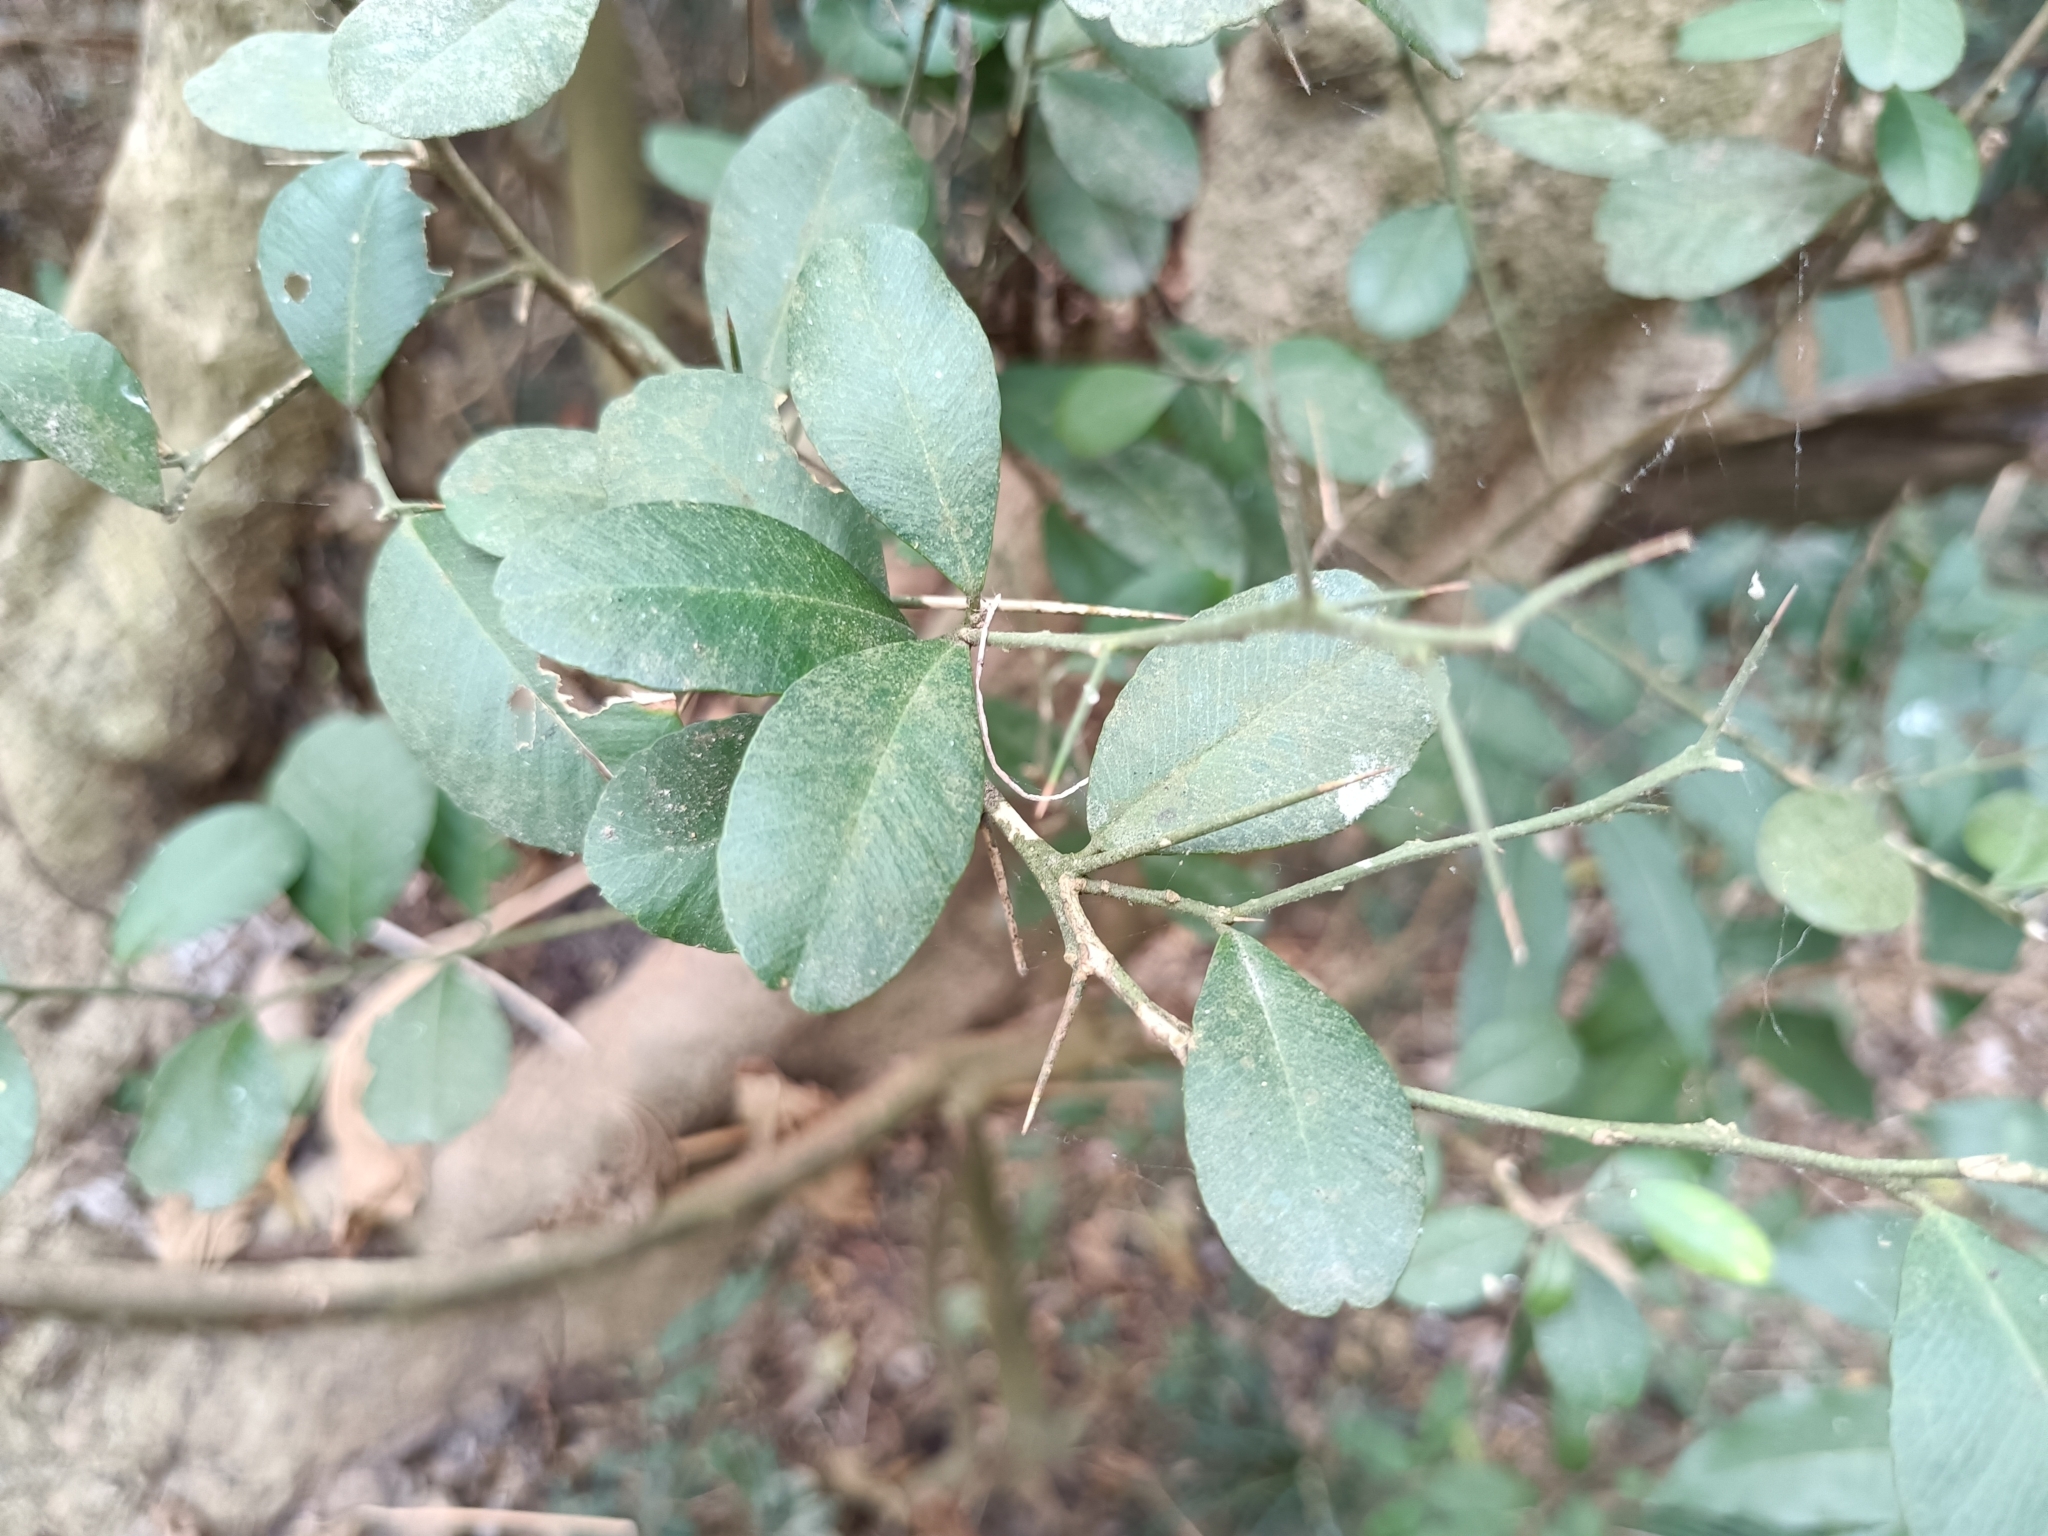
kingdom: Plantae
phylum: Tracheophyta
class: Magnoliopsida
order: Sapindales
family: Rutaceae
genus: Atalantia
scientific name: Atalantia buxifolia
